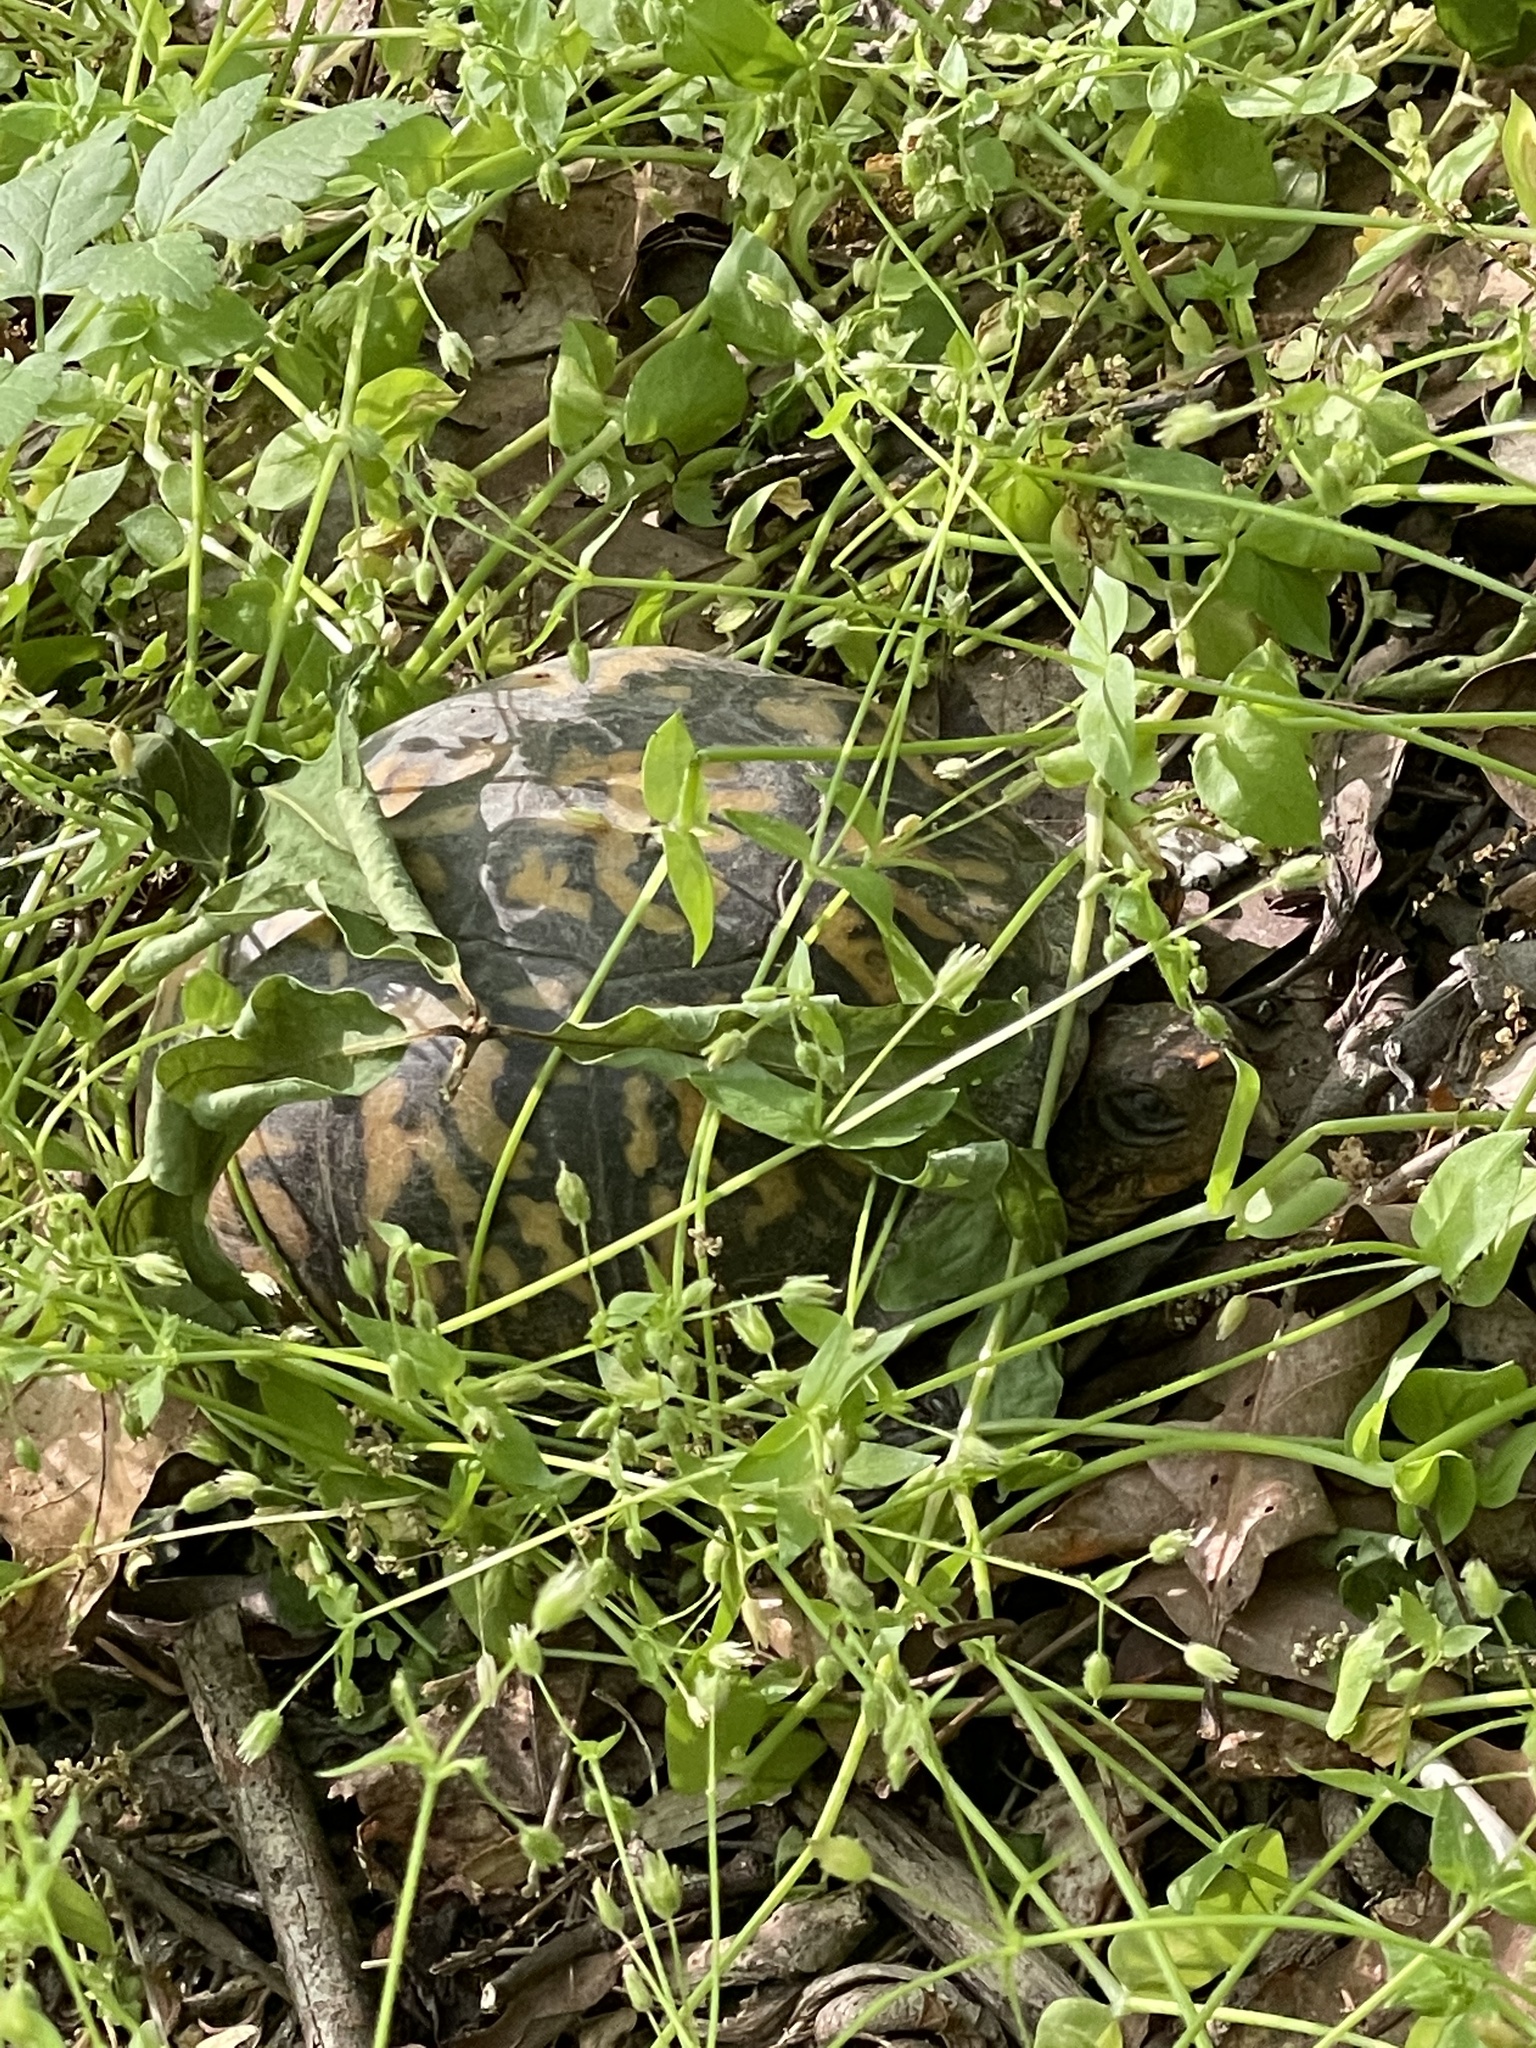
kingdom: Animalia
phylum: Chordata
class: Testudines
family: Emydidae
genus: Terrapene
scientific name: Terrapene carolina
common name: Common box turtle
